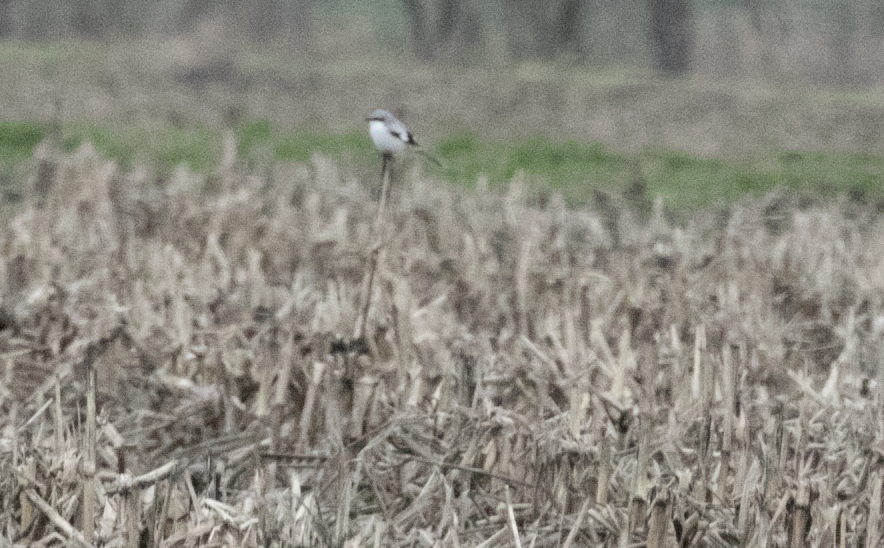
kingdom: Animalia
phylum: Chordata
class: Aves
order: Passeriformes
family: Laniidae
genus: Lanius
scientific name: Lanius excubitor
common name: Great grey shrike
